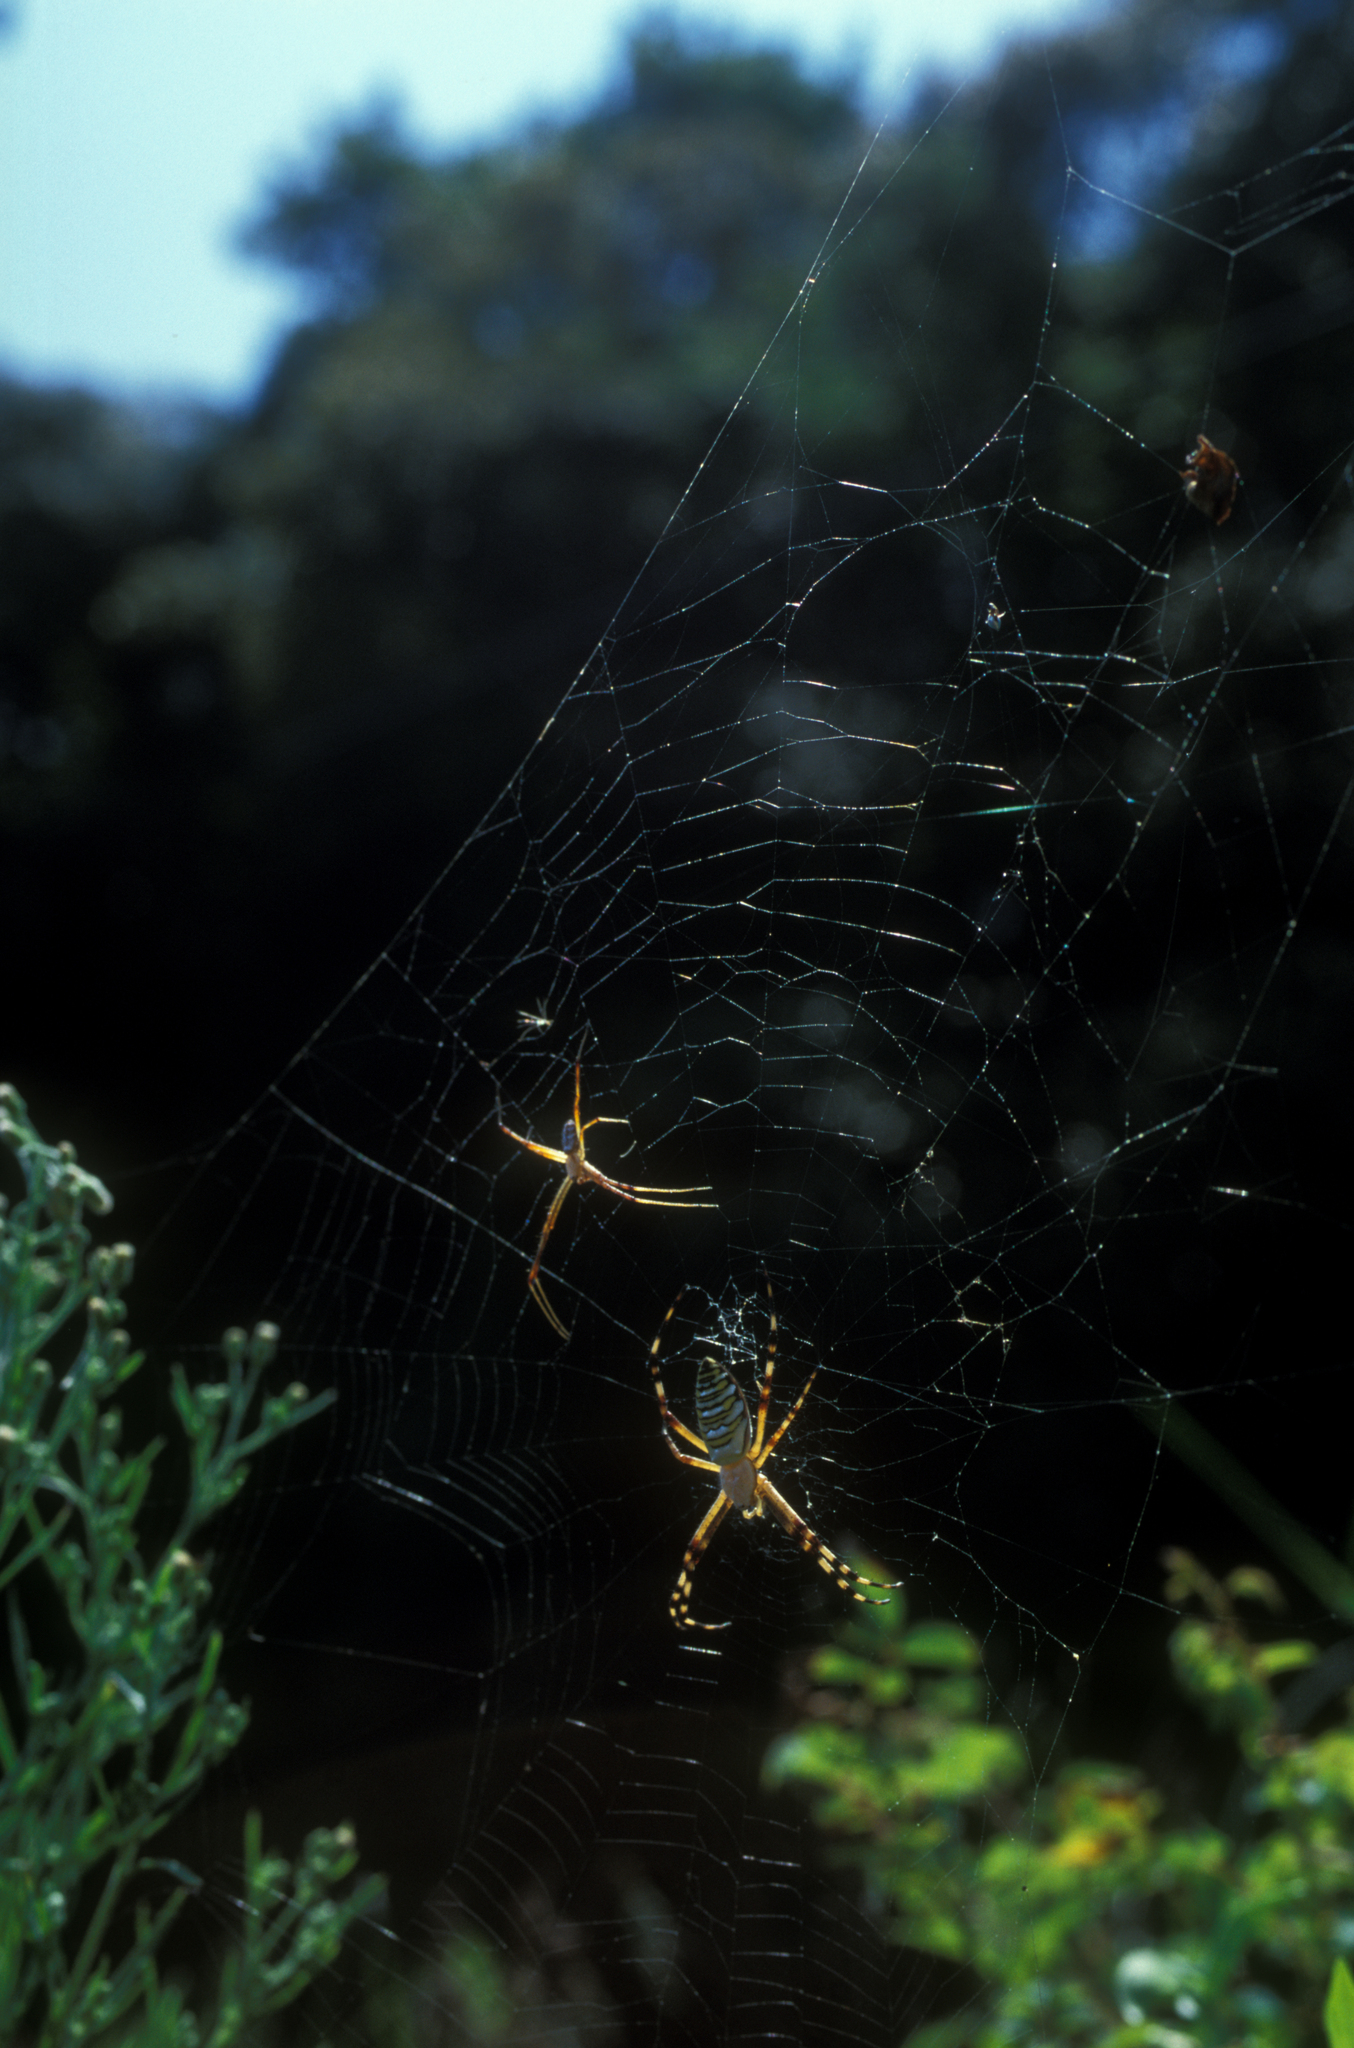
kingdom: Animalia
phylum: Arthropoda
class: Arachnida
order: Araneae
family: Araneidae
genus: Argiope
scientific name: Argiope bruennichi
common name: Wasp spider
